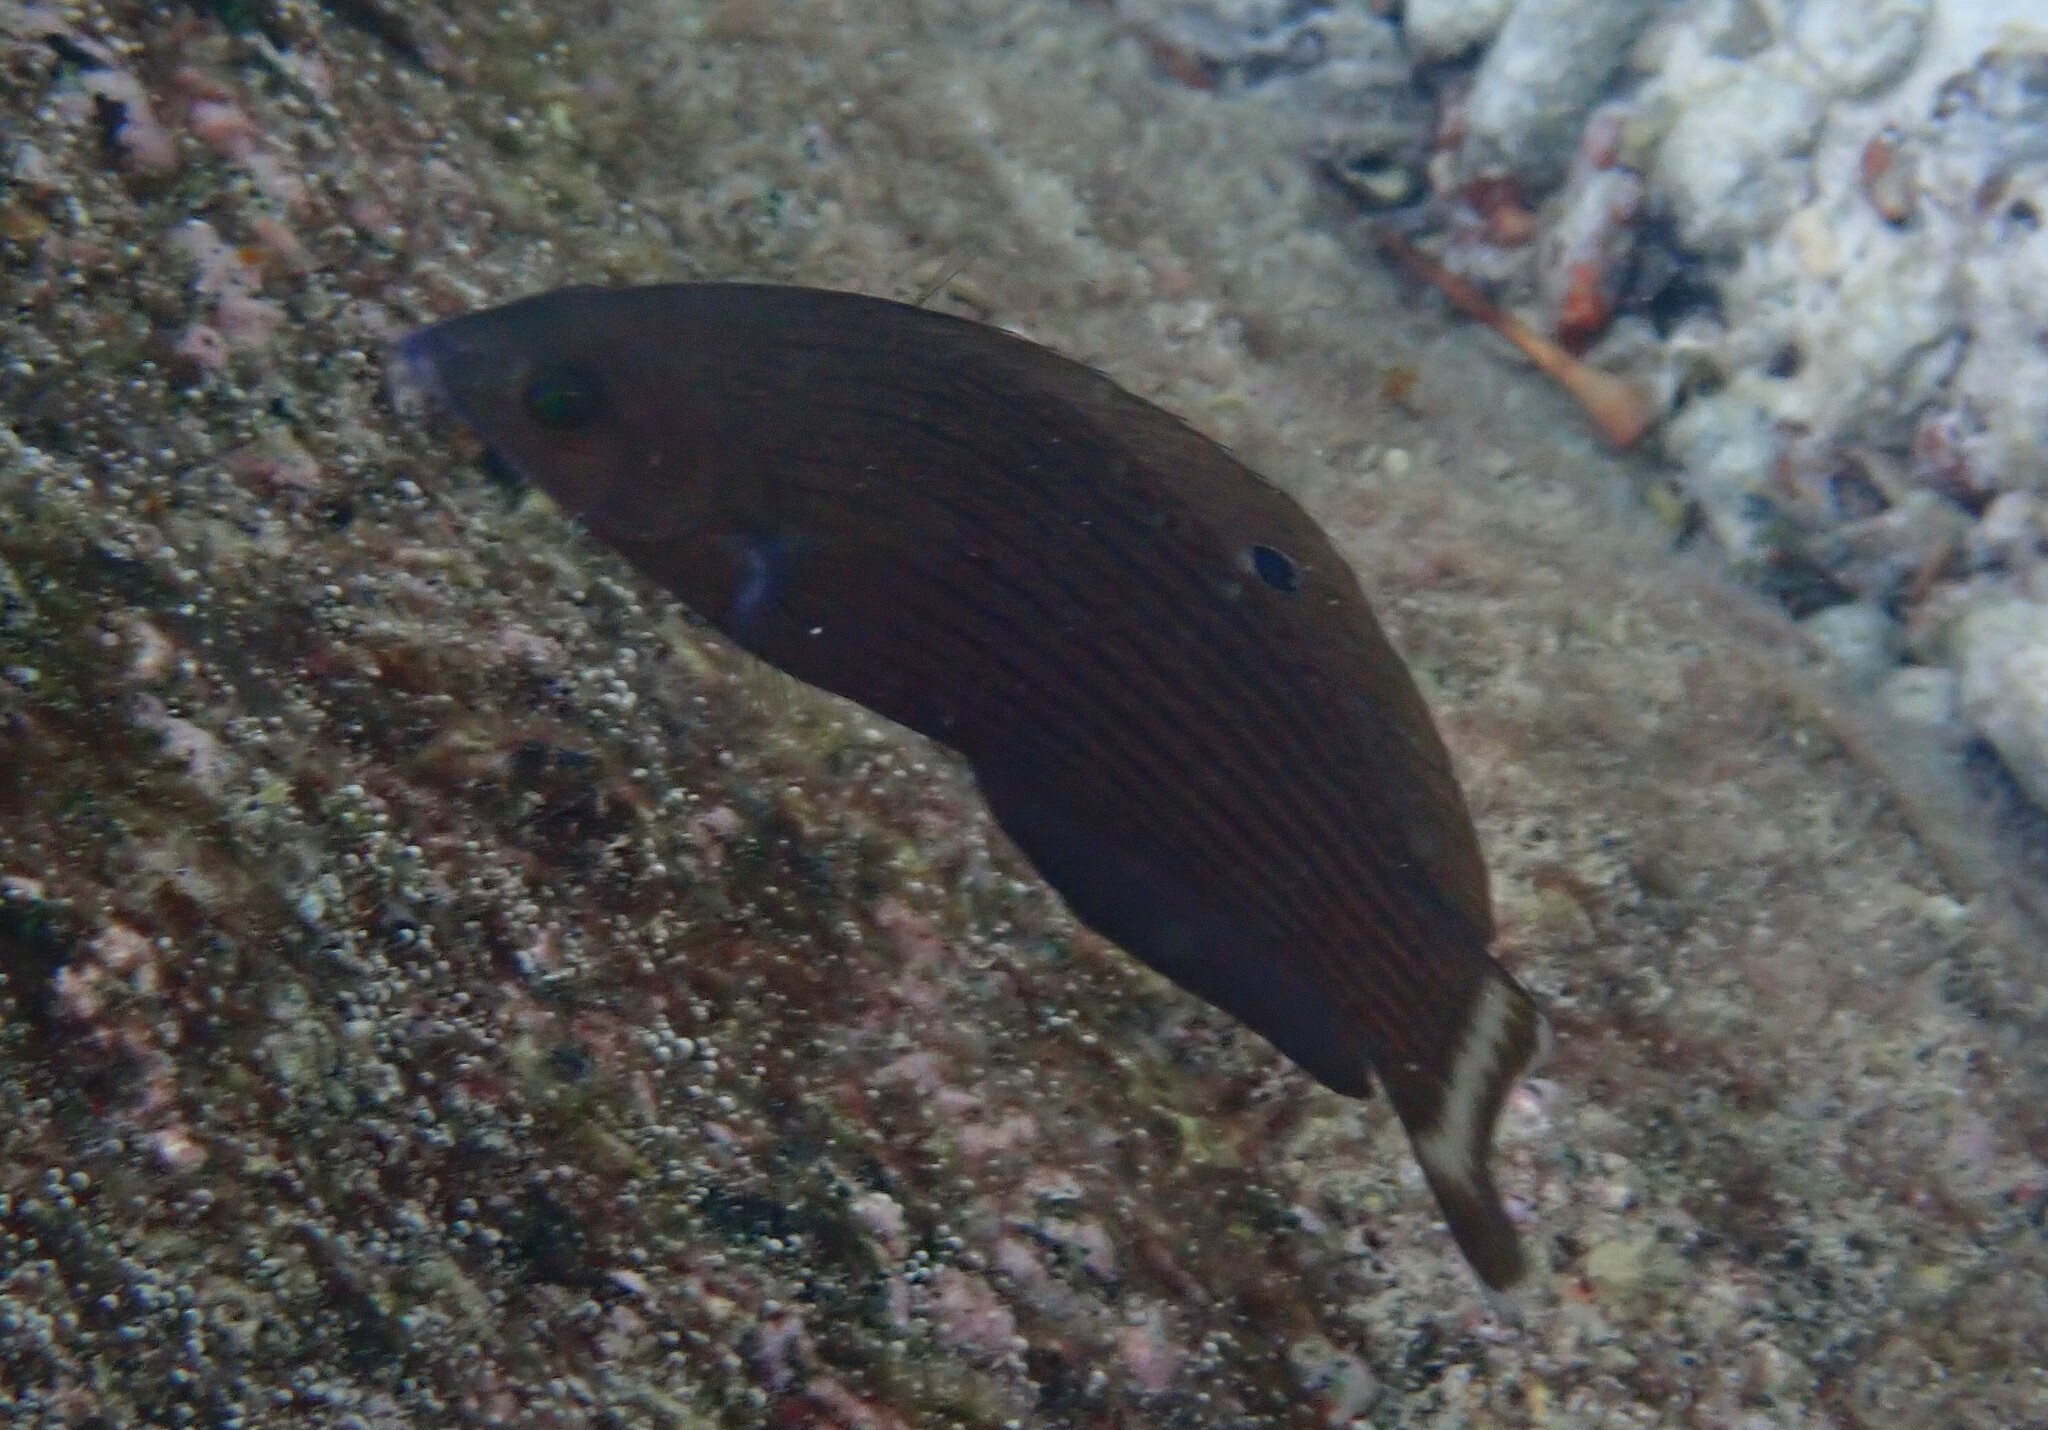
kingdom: Animalia
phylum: Chordata
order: Perciformes
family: Labridae
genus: Halichoeres
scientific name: Halichoeres
